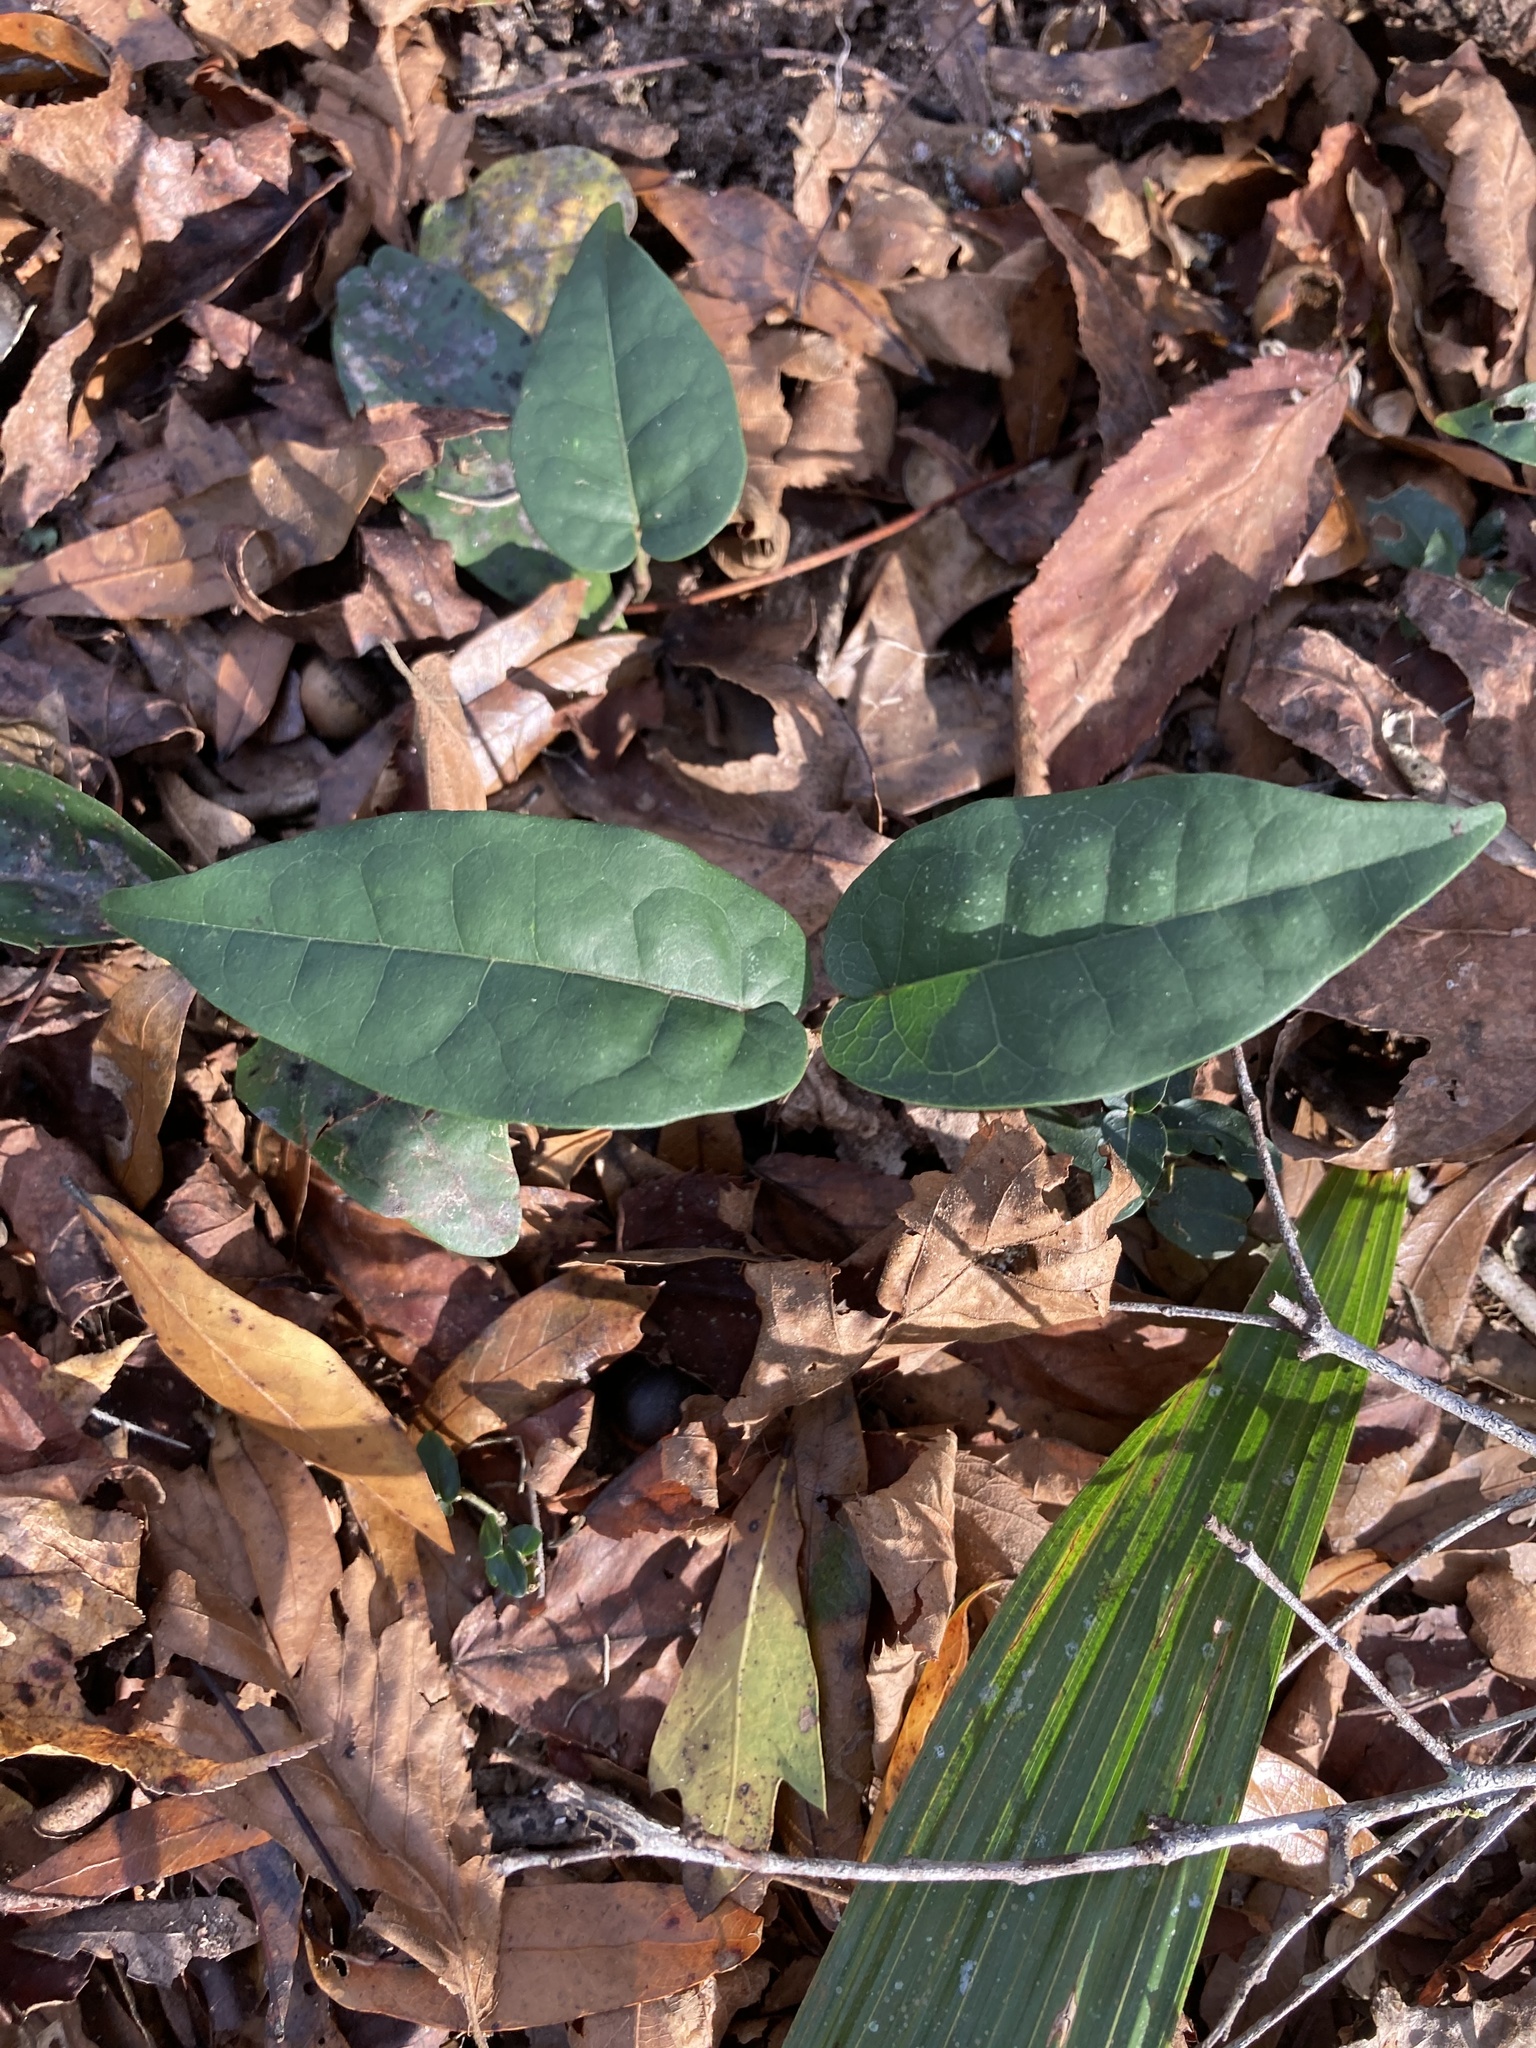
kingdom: Plantae
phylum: Tracheophyta
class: Magnoliopsida
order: Lamiales
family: Bignoniaceae
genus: Bignonia
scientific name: Bignonia capreolata
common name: Crossvine
